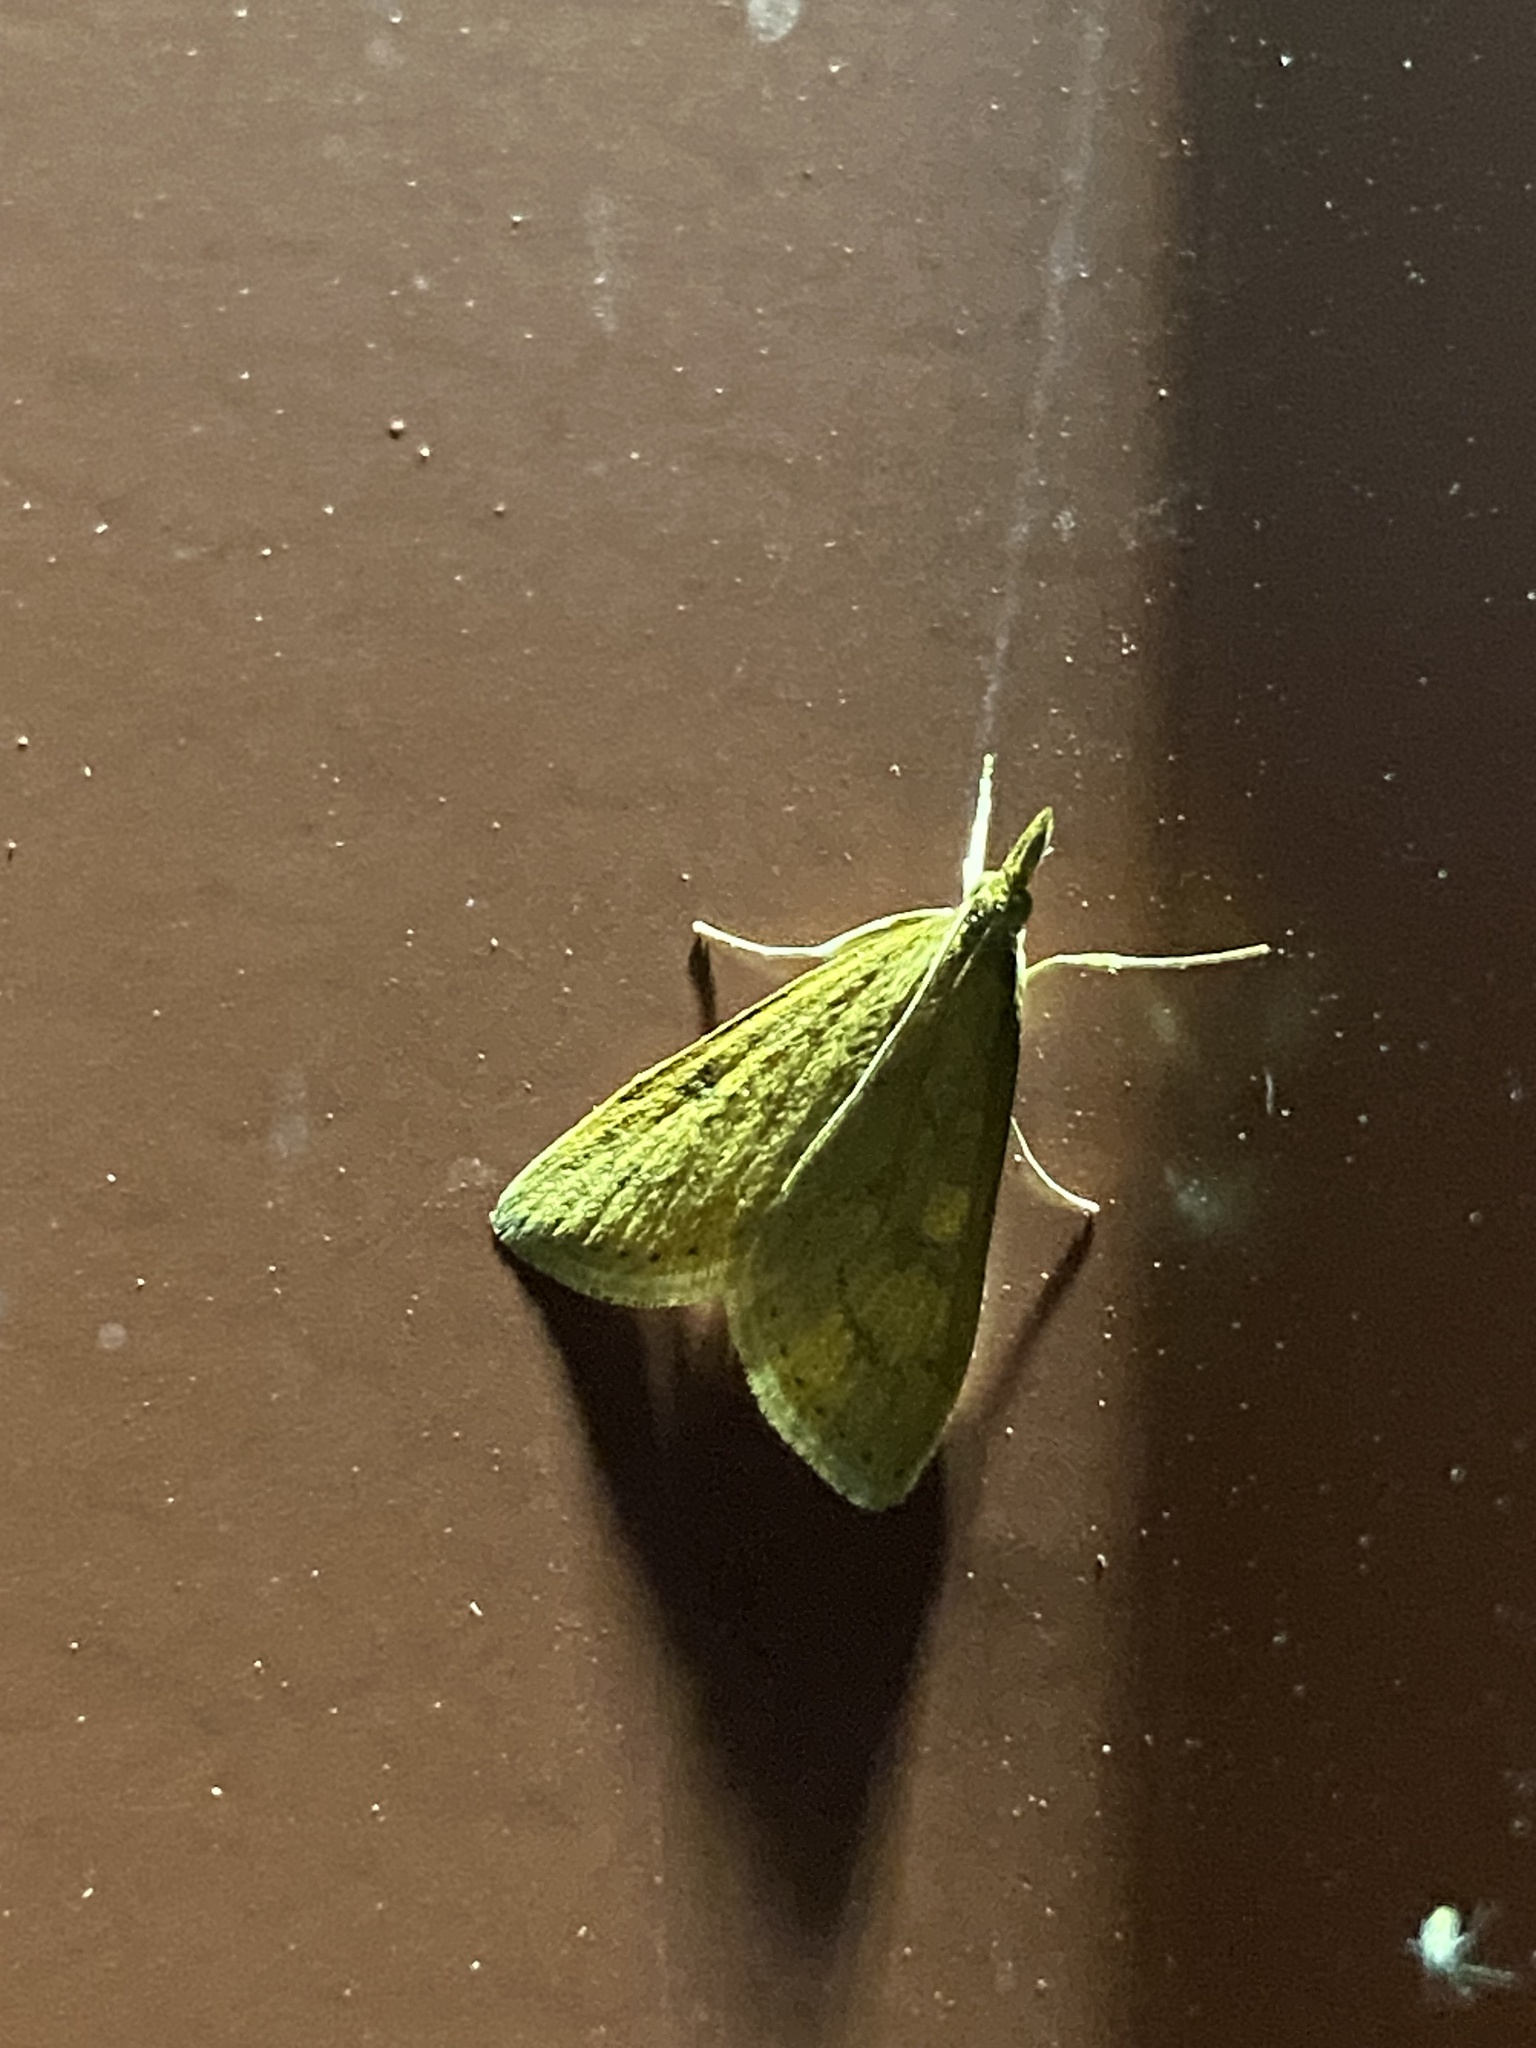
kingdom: Animalia
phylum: Arthropoda
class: Insecta
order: Lepidoptera
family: Crambidae
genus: Udea
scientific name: Udea rubigalis
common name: Celery leaftier moth
